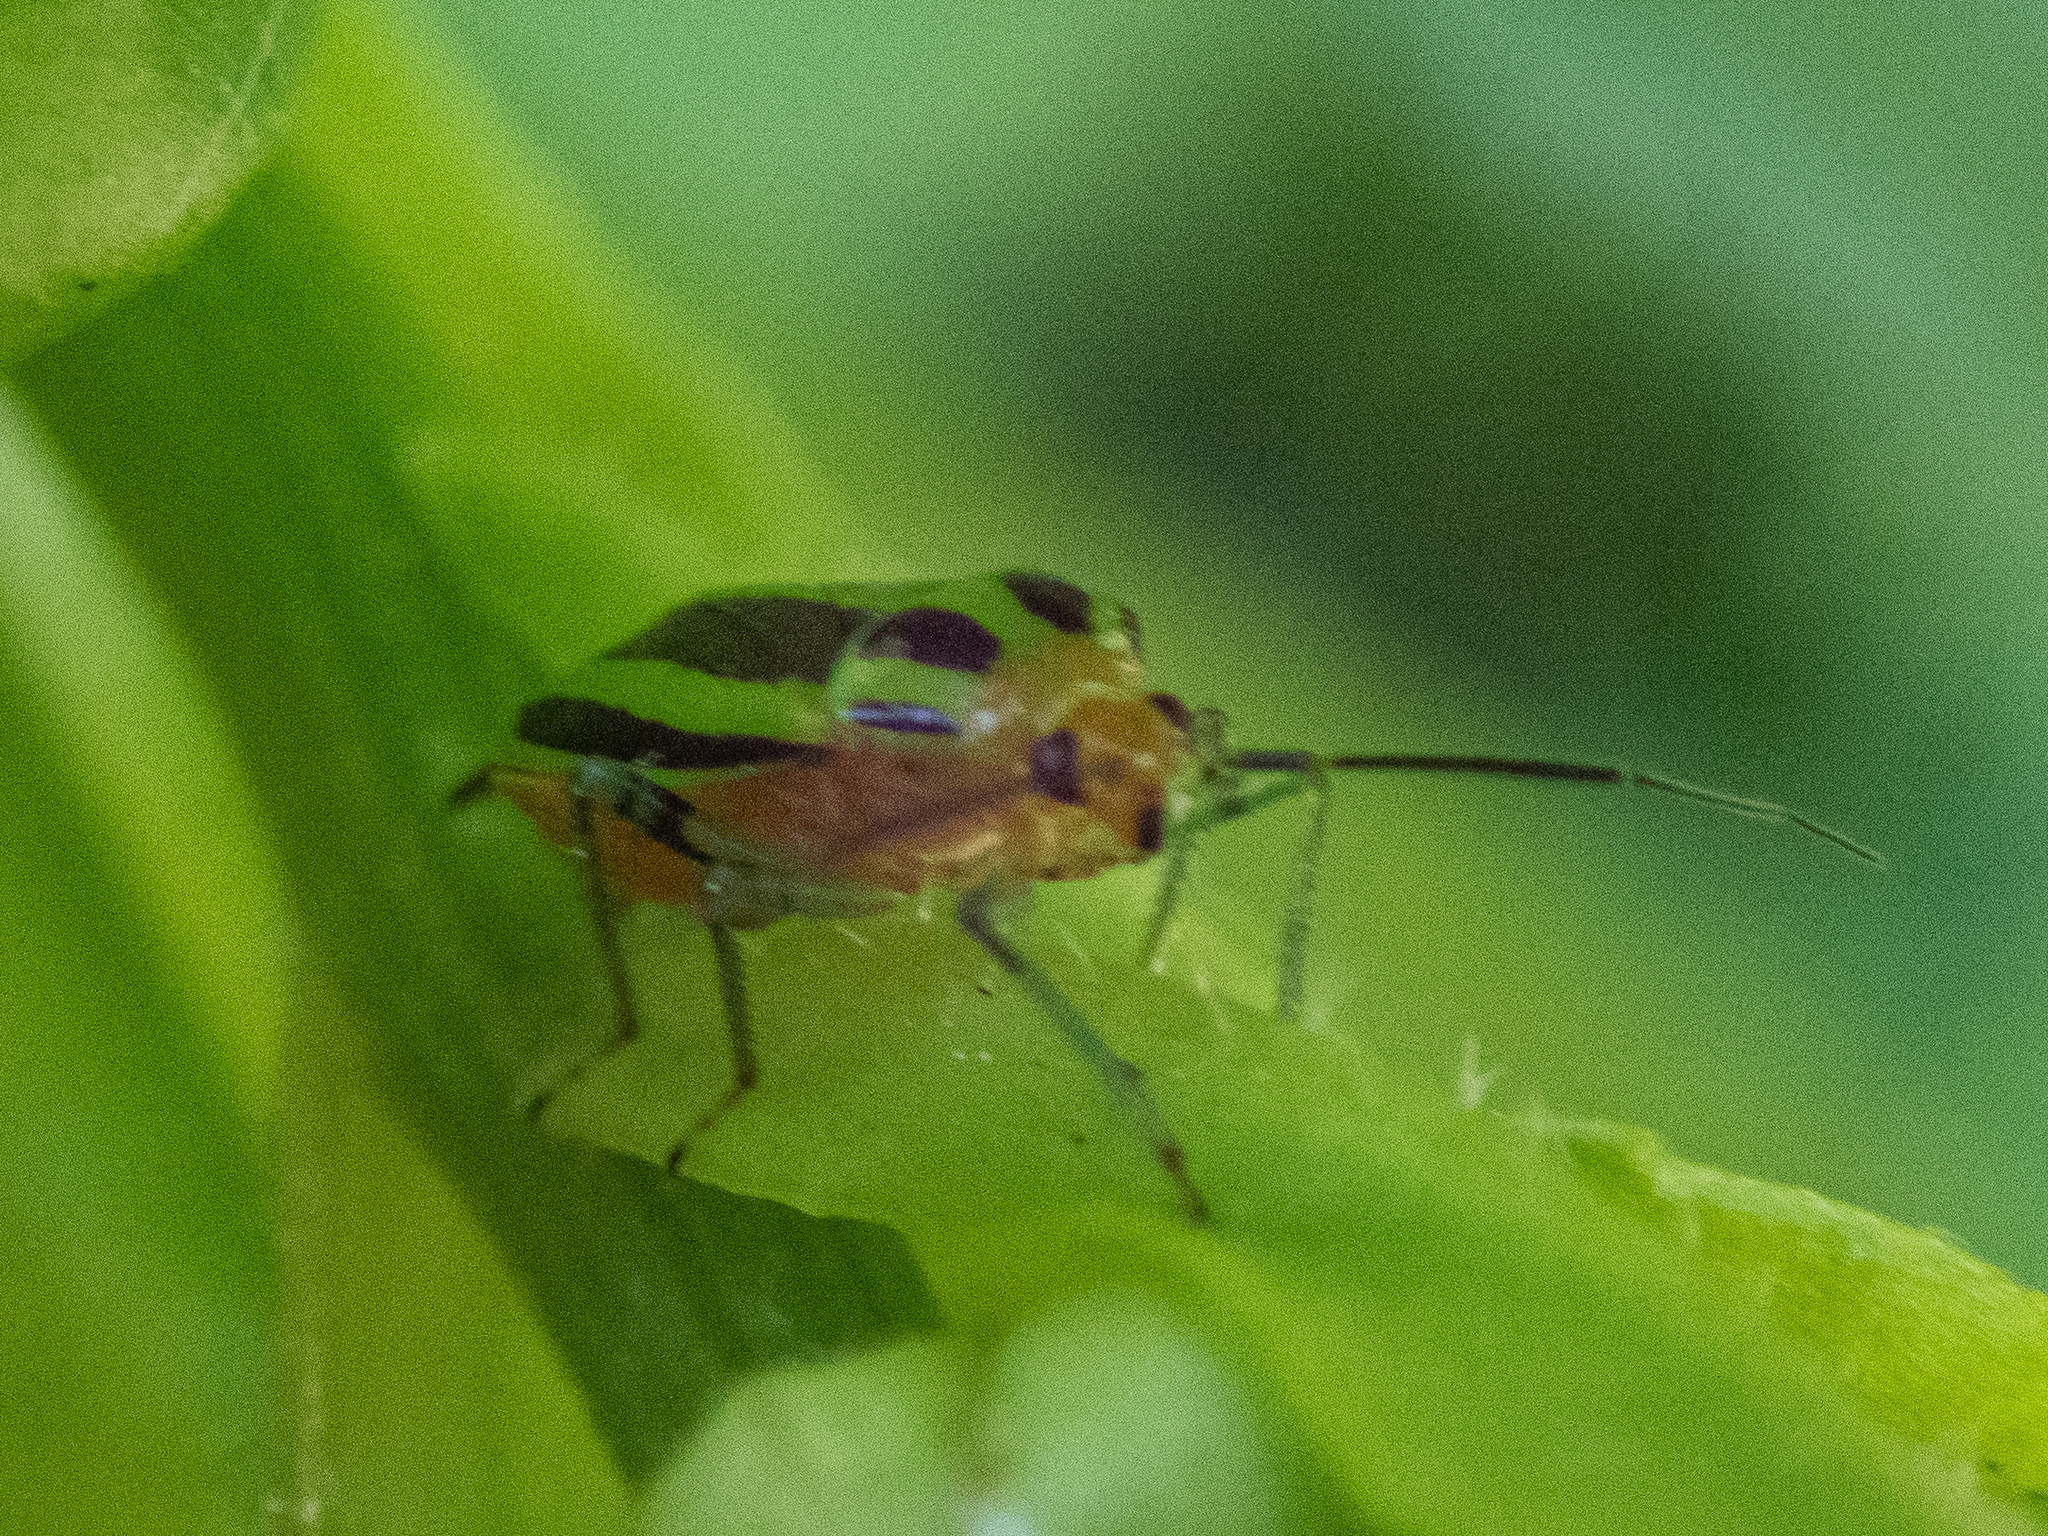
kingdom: Animalia
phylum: Arthropoda
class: Insecta
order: Hemiptera
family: Miridae
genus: Poecilocapsus
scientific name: Poecilocapsus lineatus
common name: Four-lined plant bug
